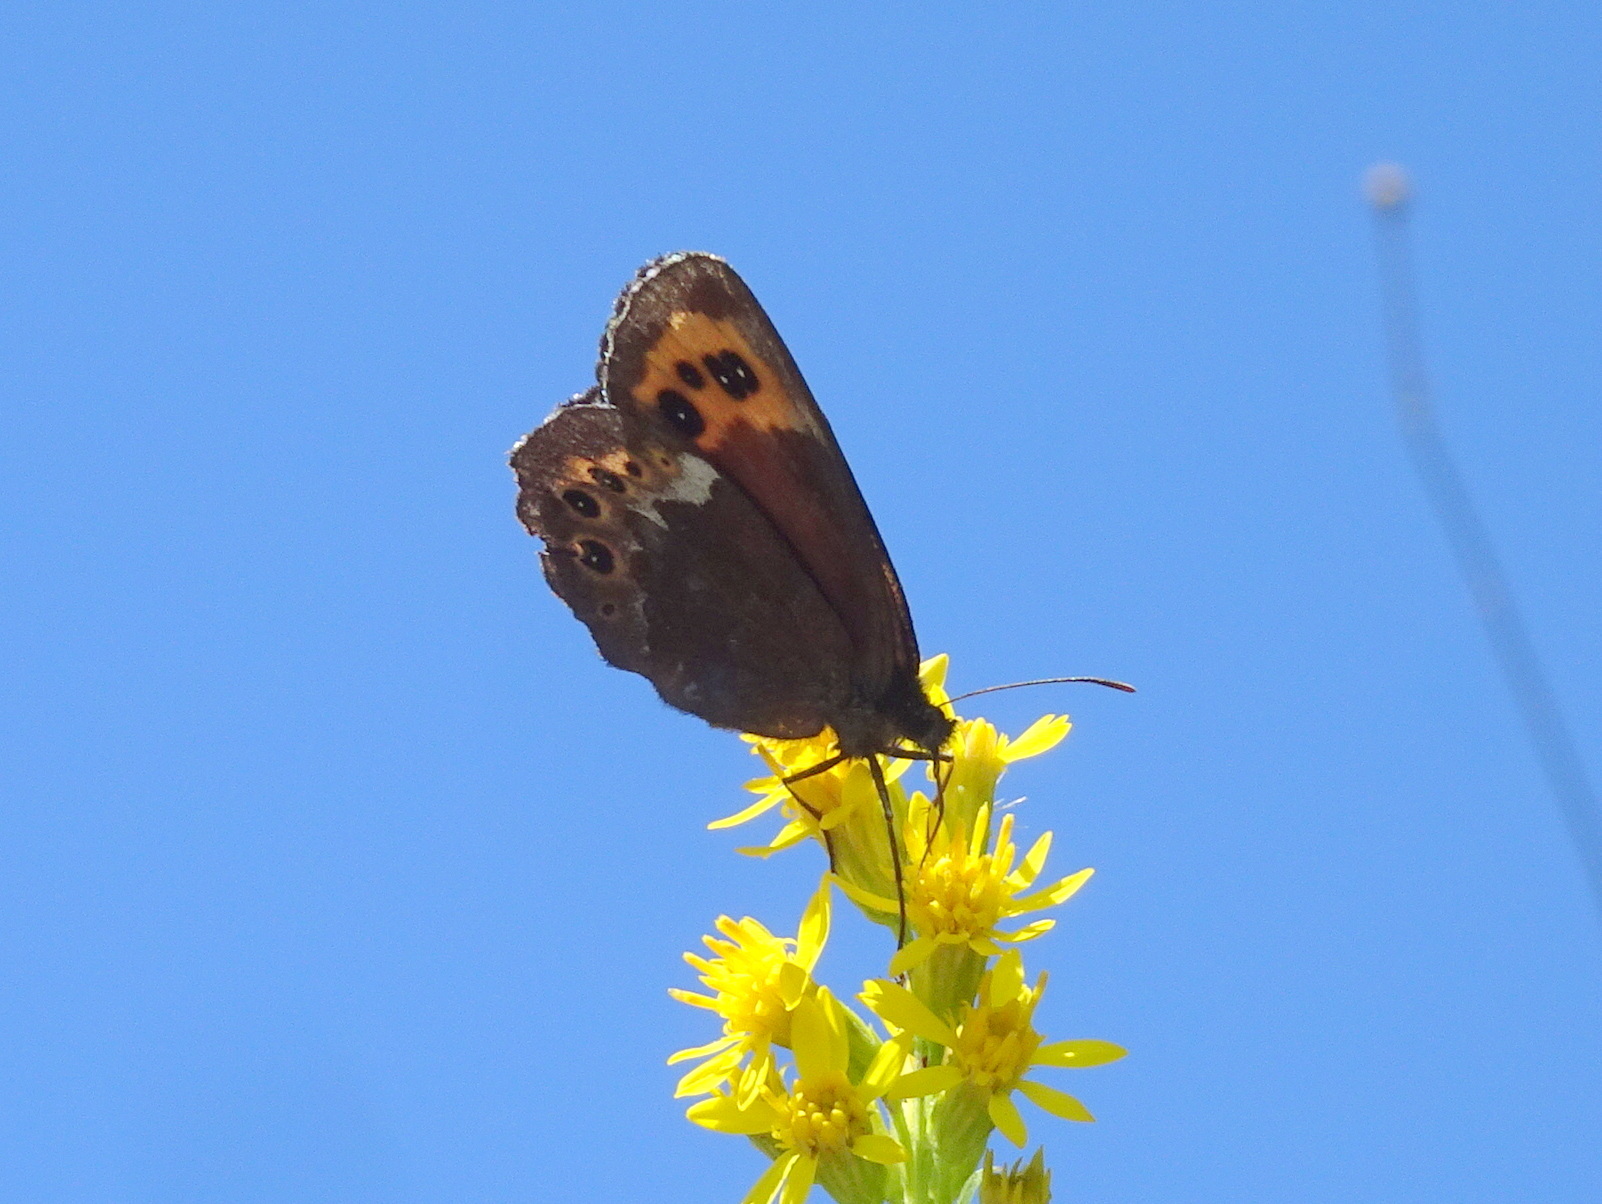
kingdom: Animalia
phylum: Arthropoda
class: Insecta
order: Lepidoptera
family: Nymphalidae
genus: Erebia
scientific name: Erebia ligea
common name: Arran brown
